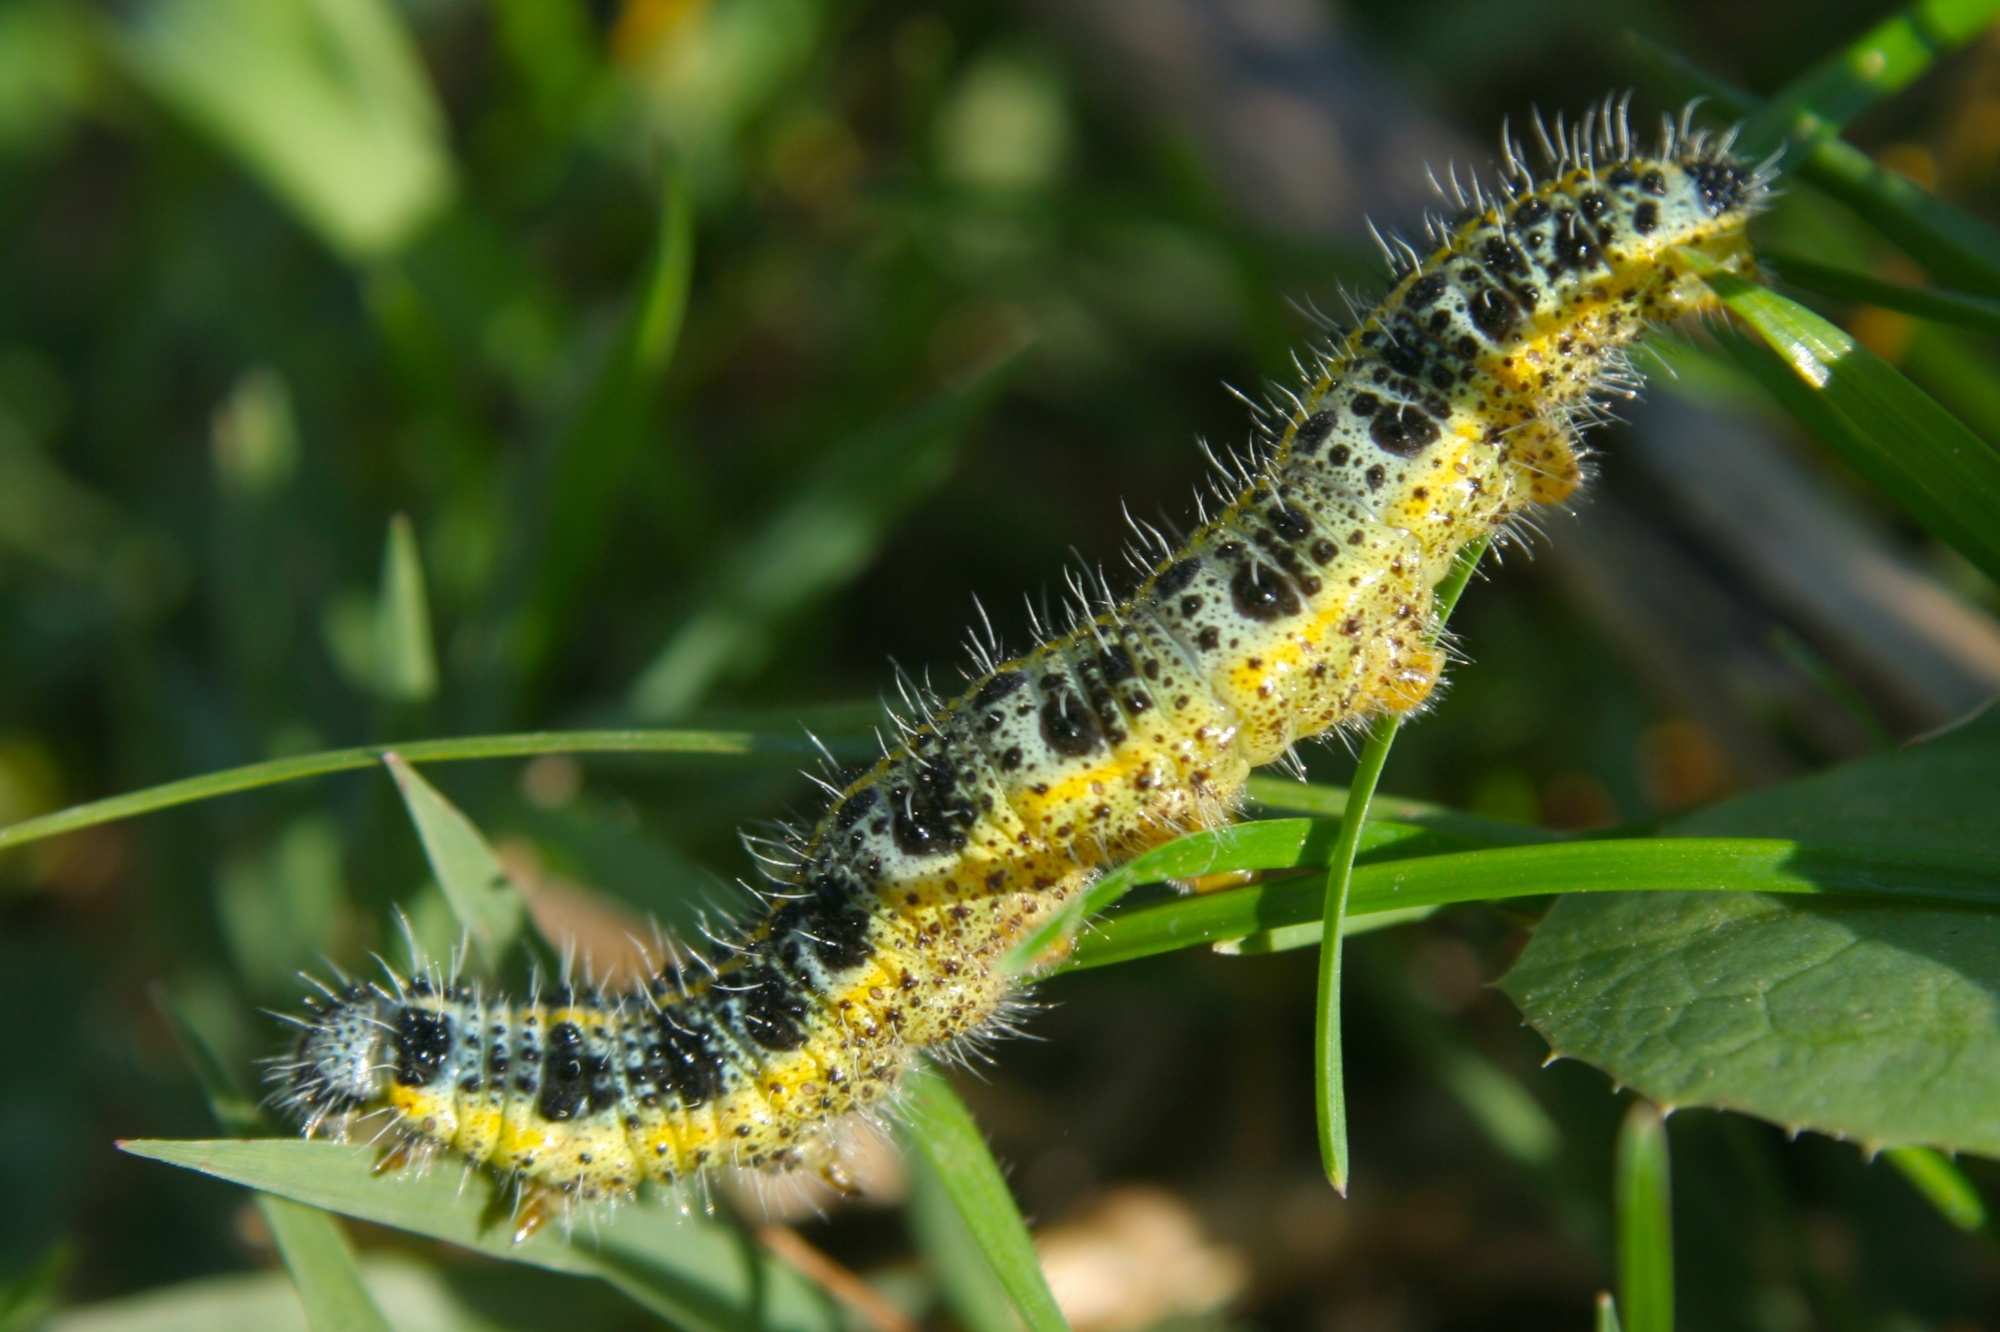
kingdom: Animalia
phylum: Arthropoda
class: Insecta
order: Lepidoptera
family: Pieridae
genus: Pieris
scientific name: Pieris brassicae
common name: Large white
